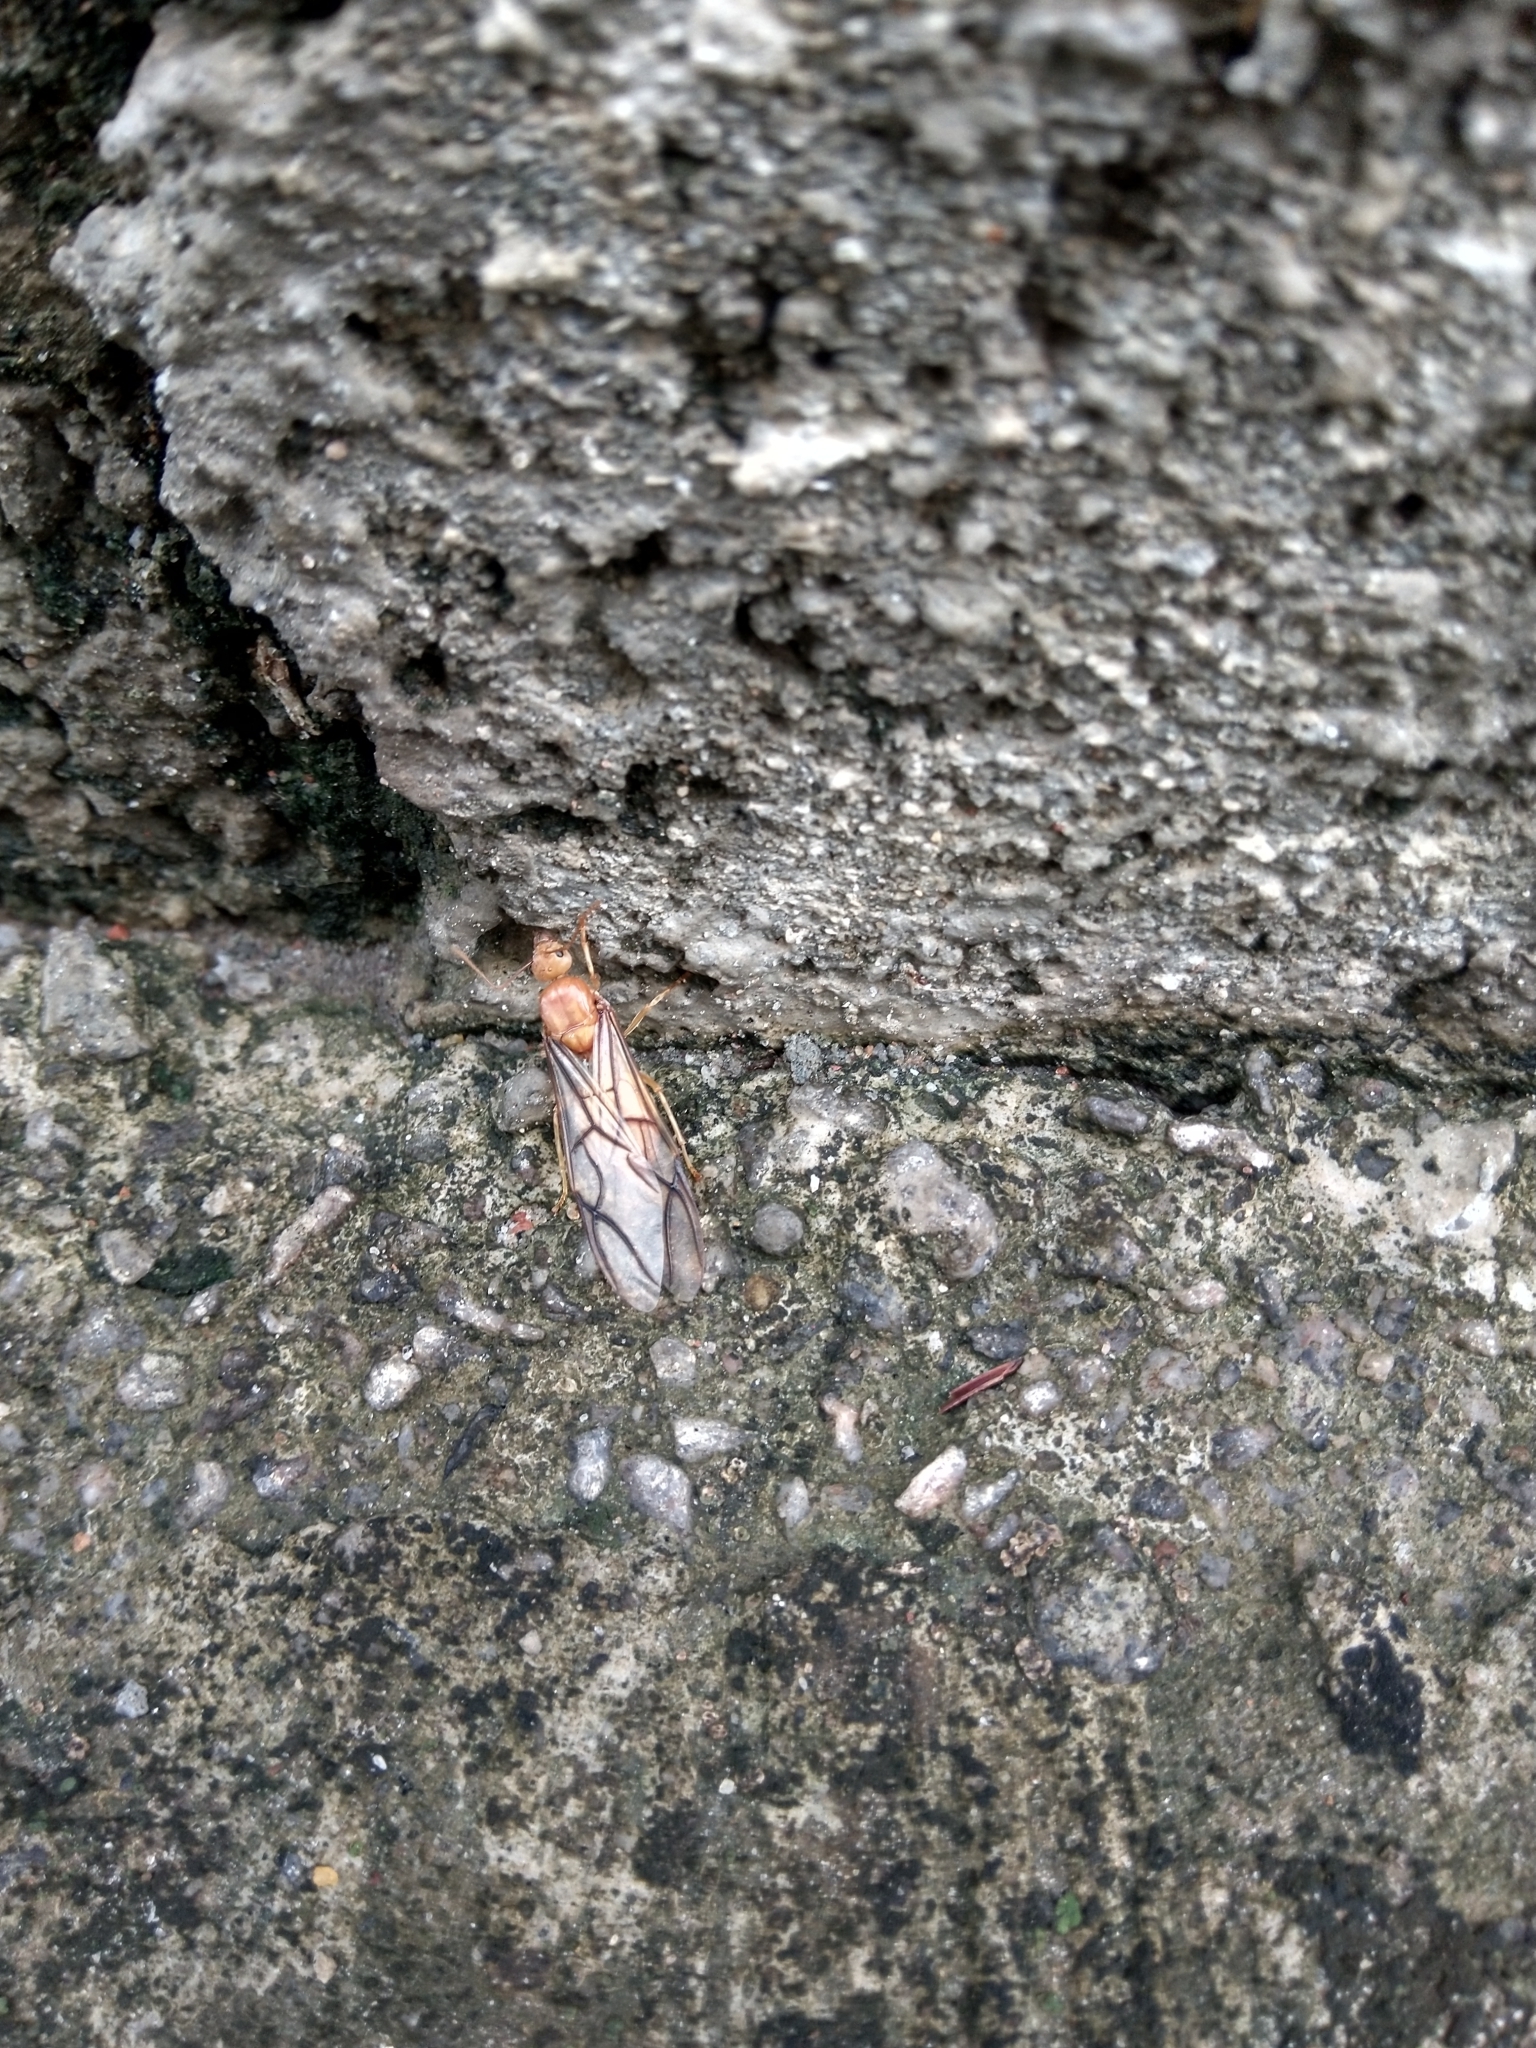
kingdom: Animalia
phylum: Arthropoda
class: Insecta
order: Hymenoptera
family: Formicidae
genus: Oecophylla
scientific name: Oecophylla smaragdina
